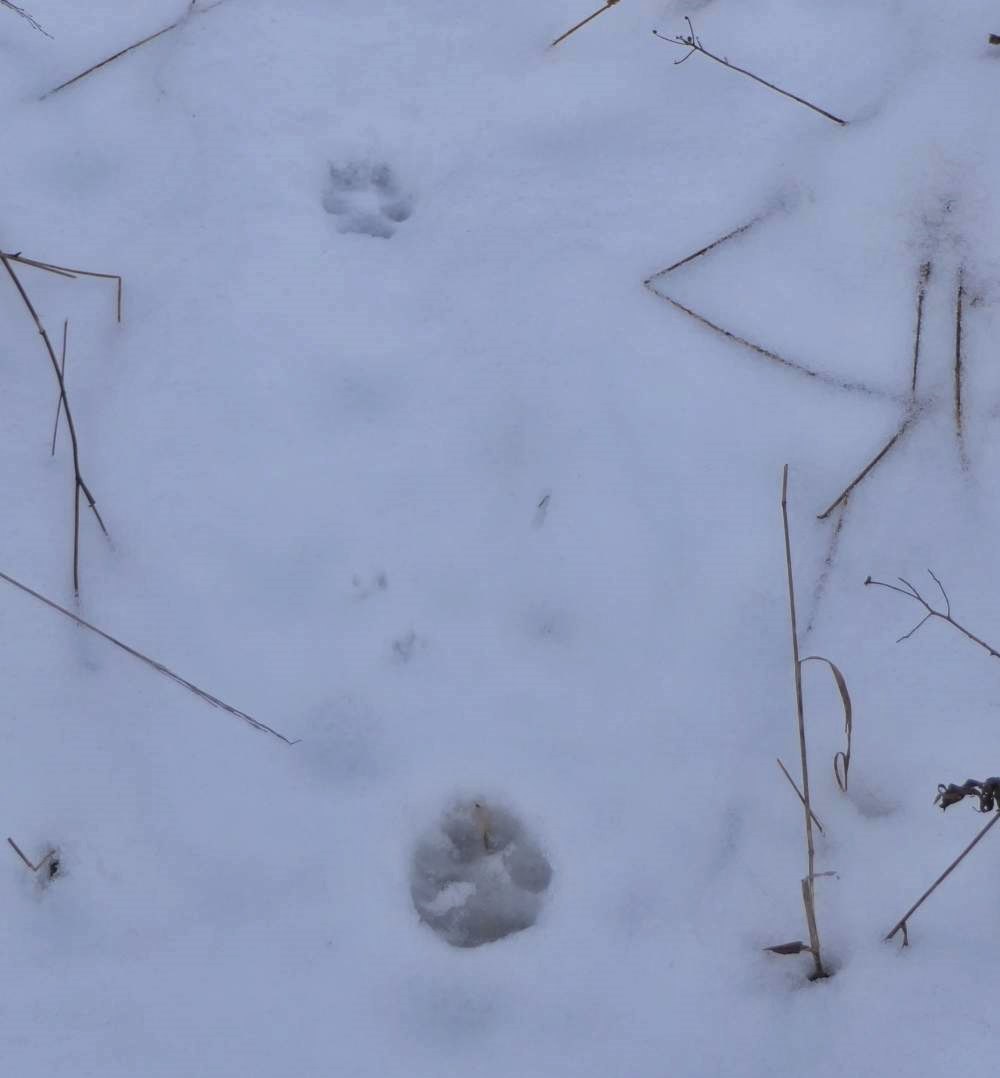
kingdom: Animalia
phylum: Chordata
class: Mammalia
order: Carnivora
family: Canidae
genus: Canis
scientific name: Canis latrans
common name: Coyote
